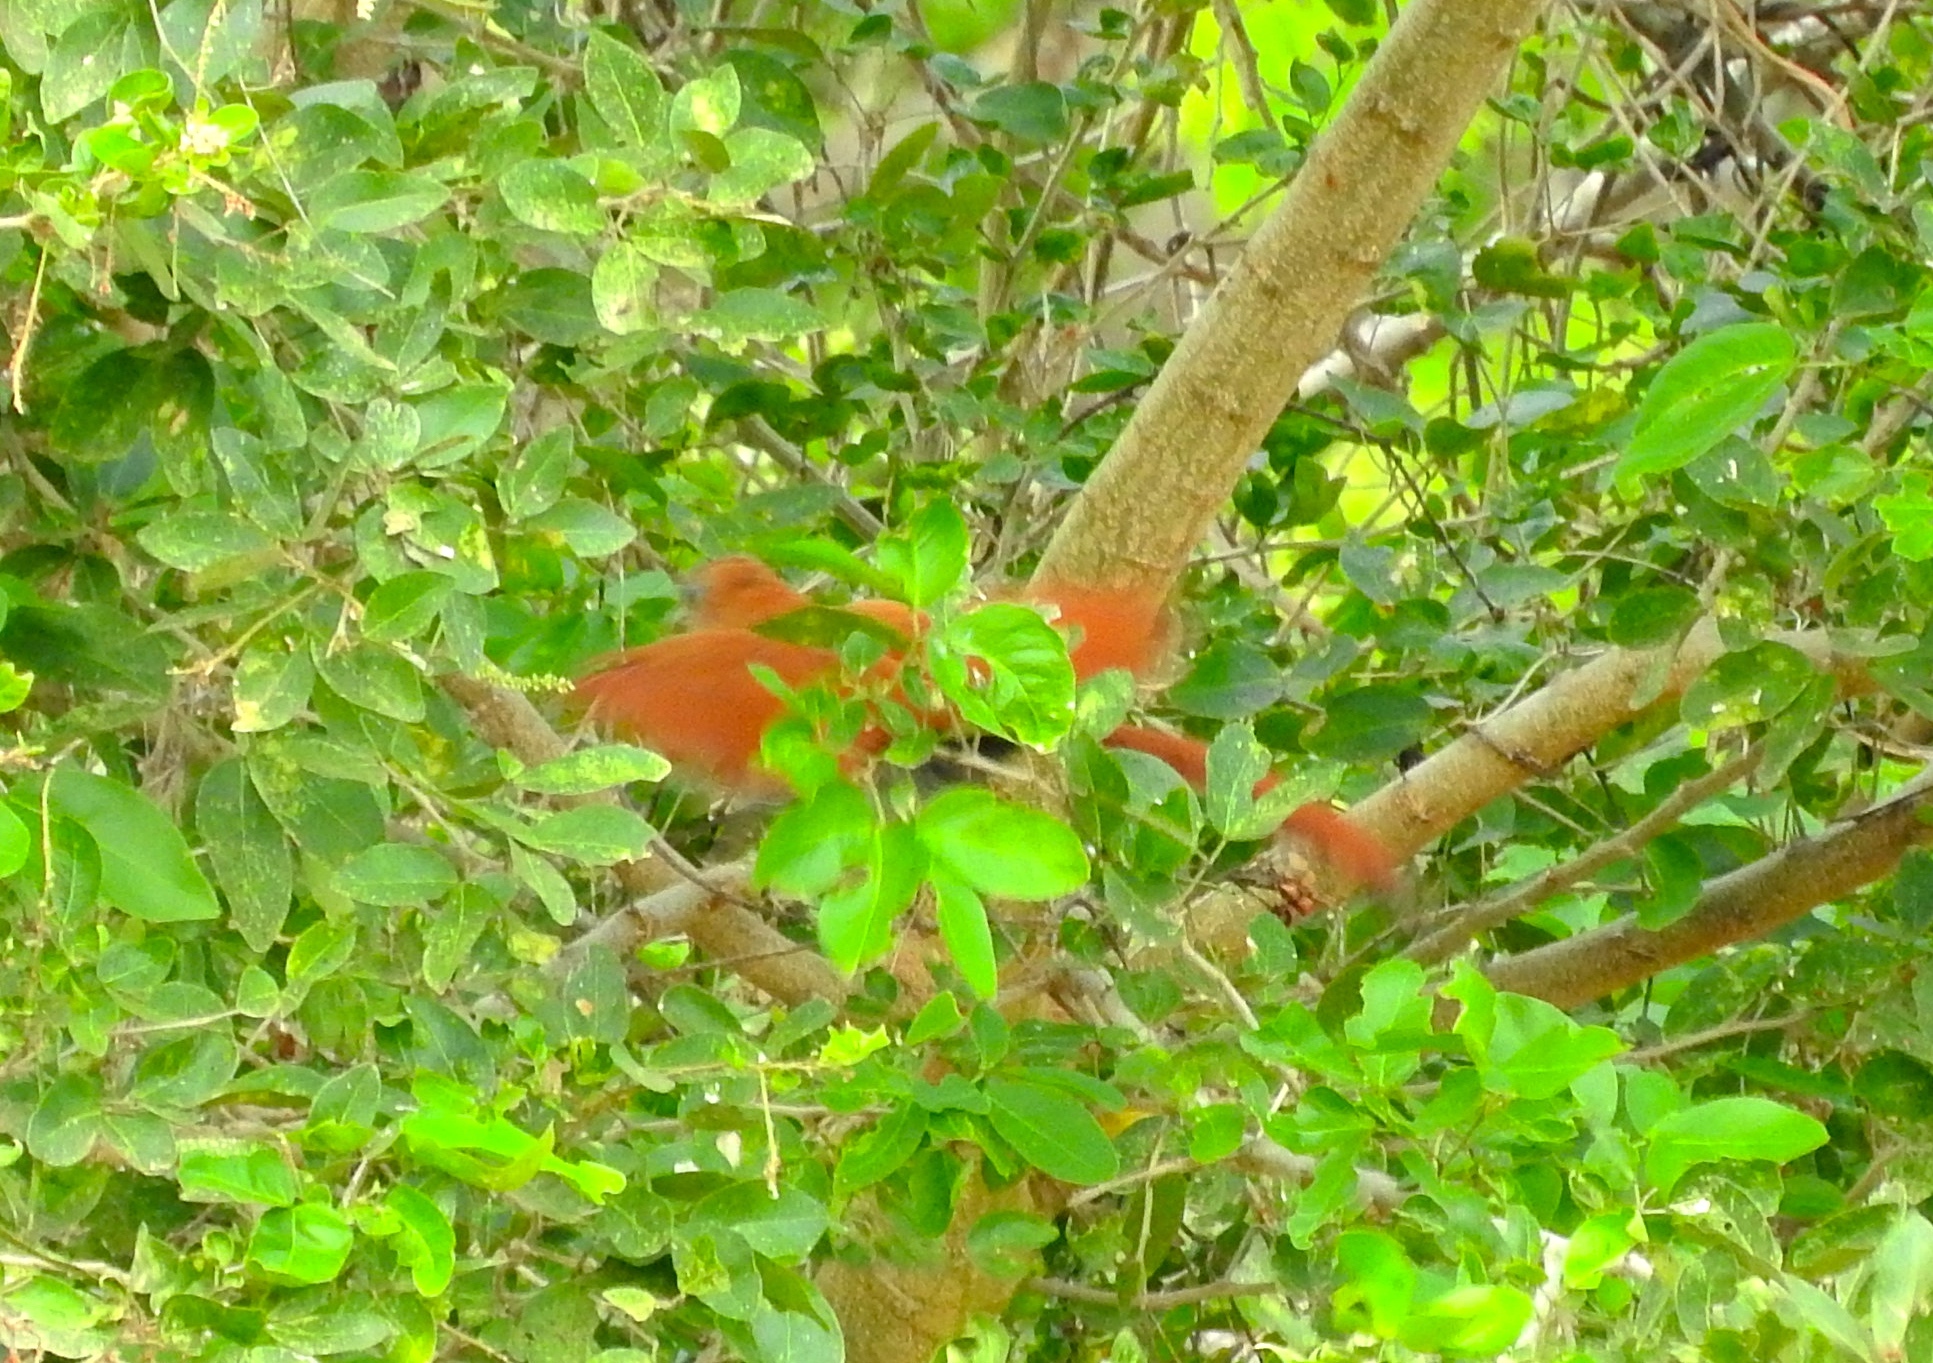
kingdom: Animalia
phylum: Chordata
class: Aves
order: Cuculiformes
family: Cuculidae
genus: Piaya
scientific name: Piaya cayana
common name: Squirrel cuckoo
